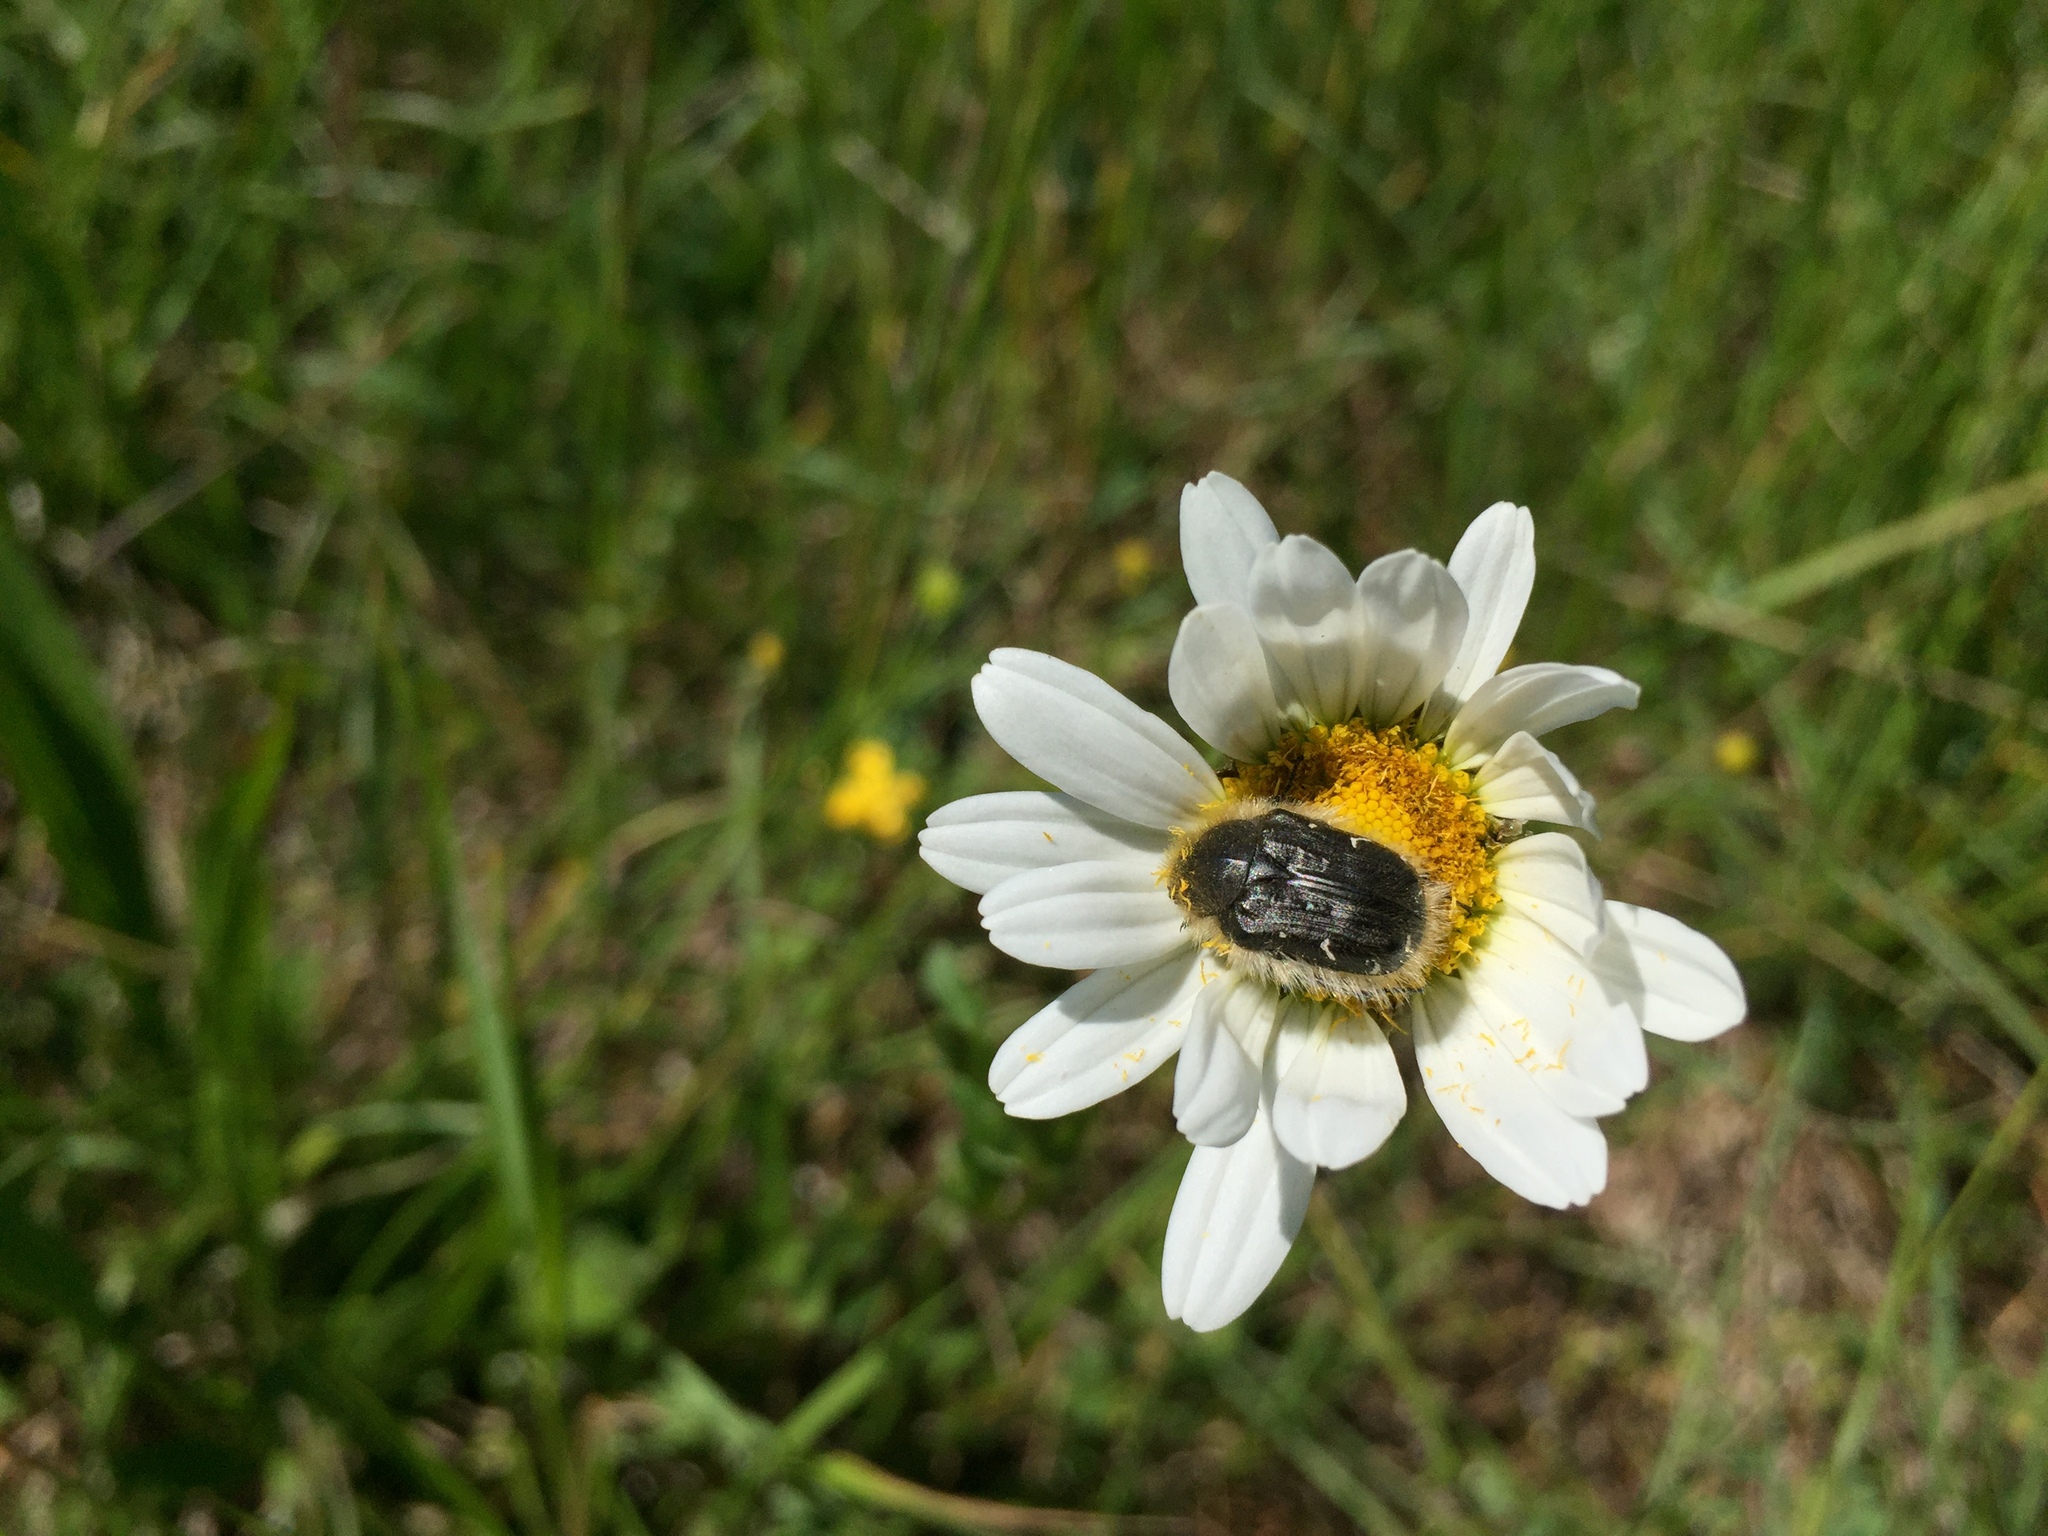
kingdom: Animalia
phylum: Arthropoda
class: Insecta
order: Coleoptera
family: Scarabaeidae
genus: Tropinota
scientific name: Tropinota hirta
